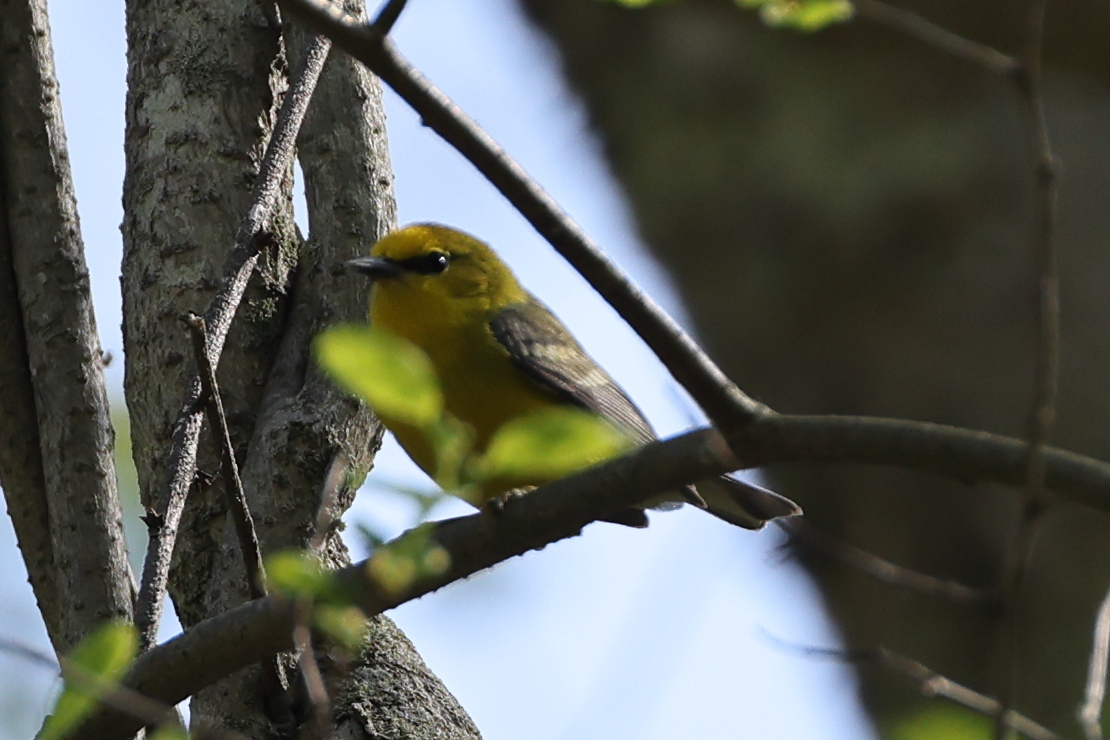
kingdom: Animalia
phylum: Chordata
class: Aves
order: Passeriformes
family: Parulidae
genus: Vermivora
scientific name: Vermivora cyanoptera
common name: Blue-winged warbler
